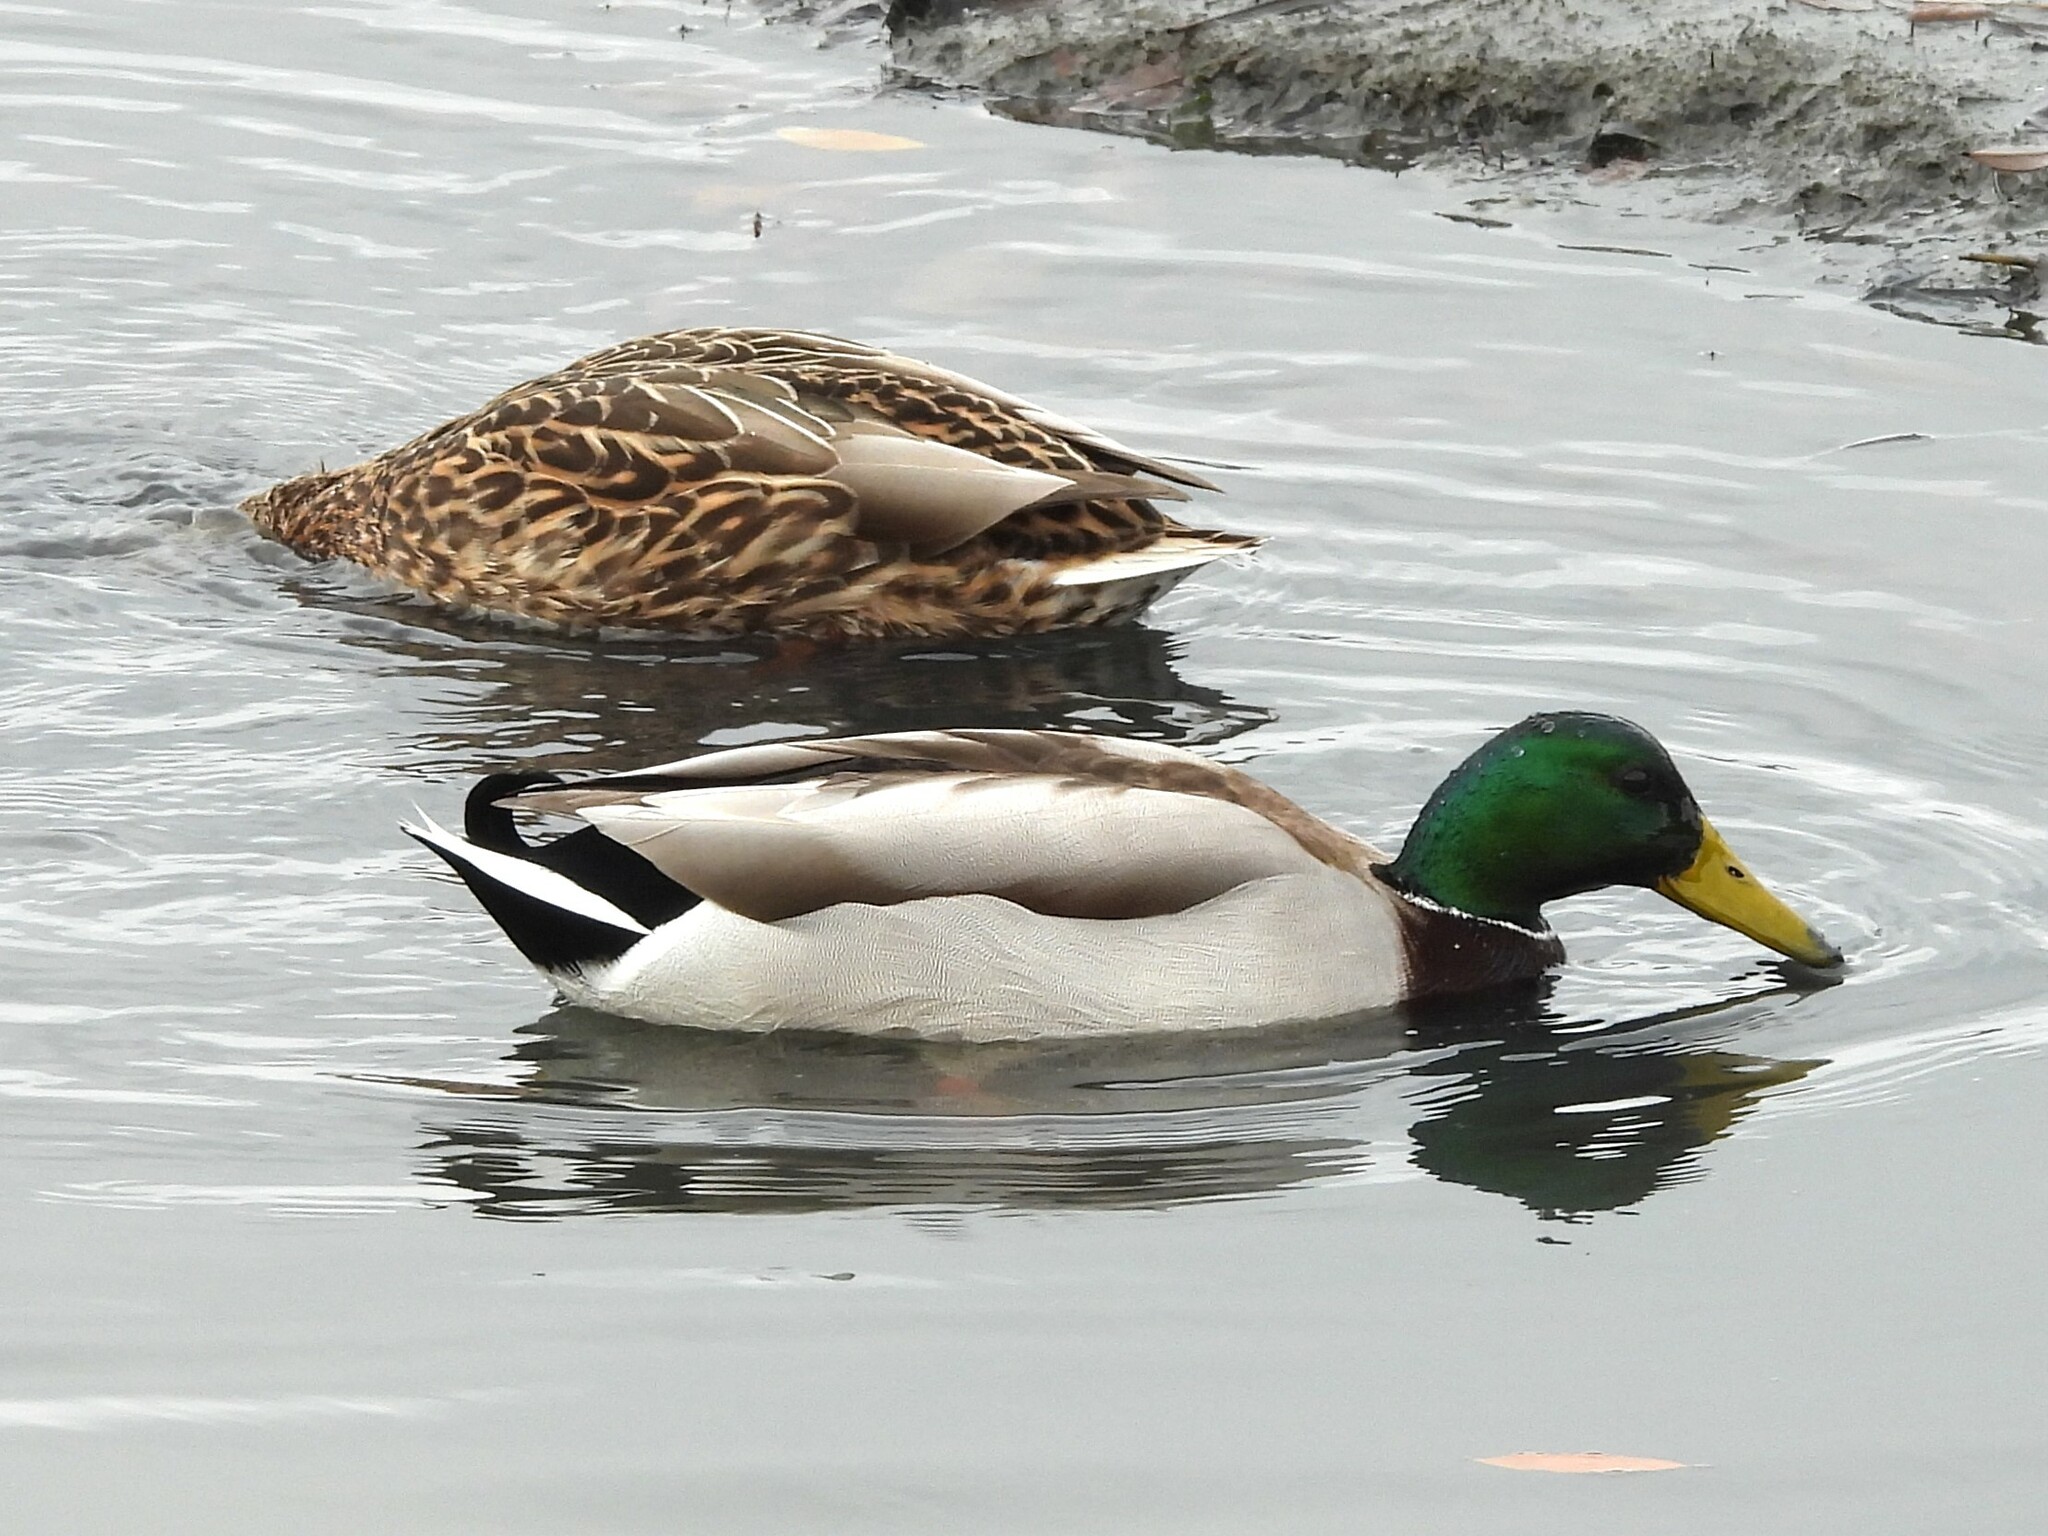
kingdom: Animalia
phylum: Chordata
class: Aves
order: Anseriformes
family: Anatidae
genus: Anas
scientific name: Anas platyrhynchos
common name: Mallard
